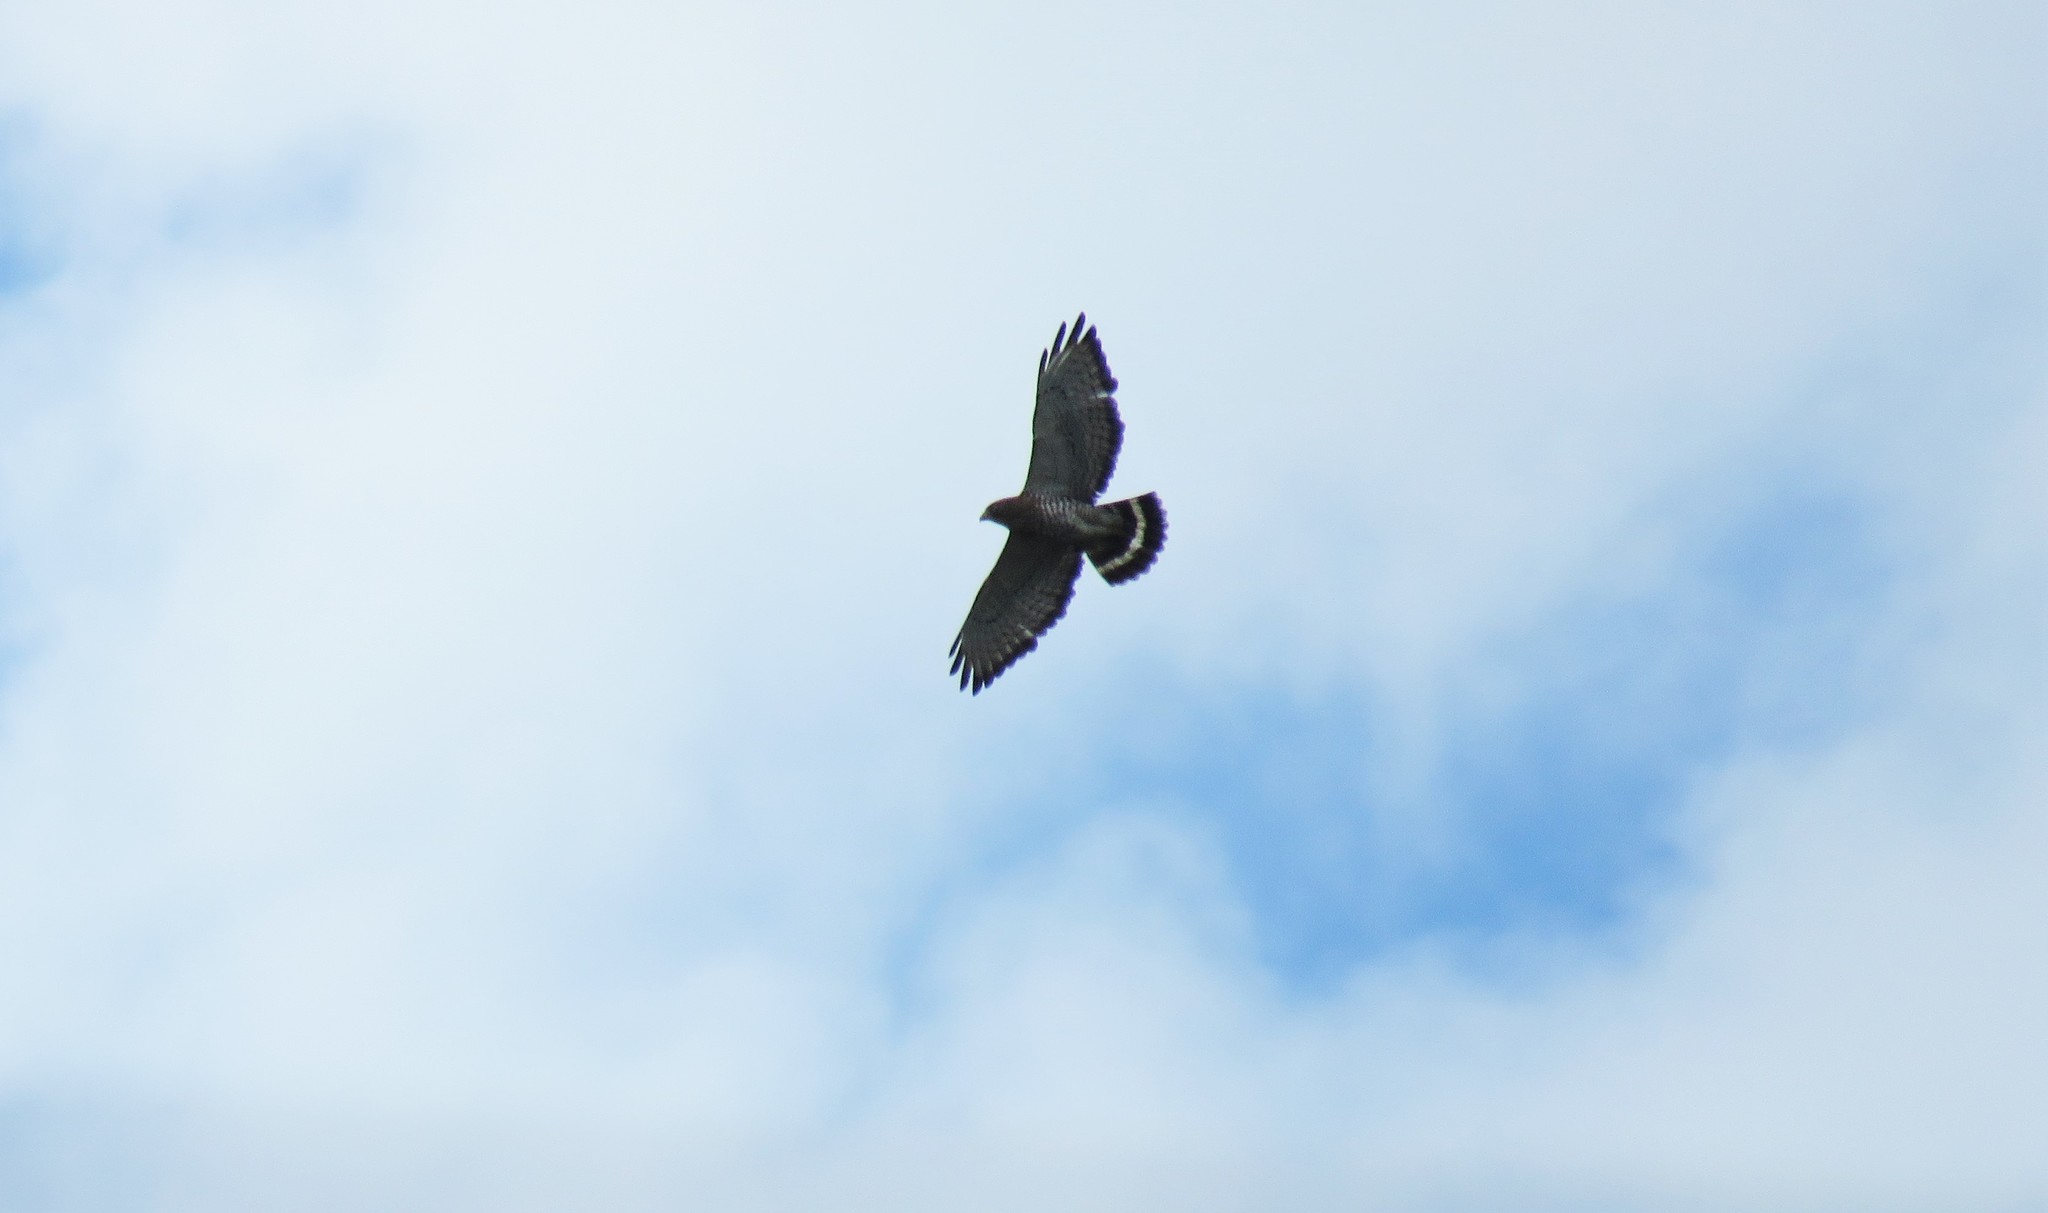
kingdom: Animalia
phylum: Chordata
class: Aves
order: Accipitriformes
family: Accipitridae
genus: Buteo
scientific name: Buteo platypterus
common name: Broad-winged hawk
